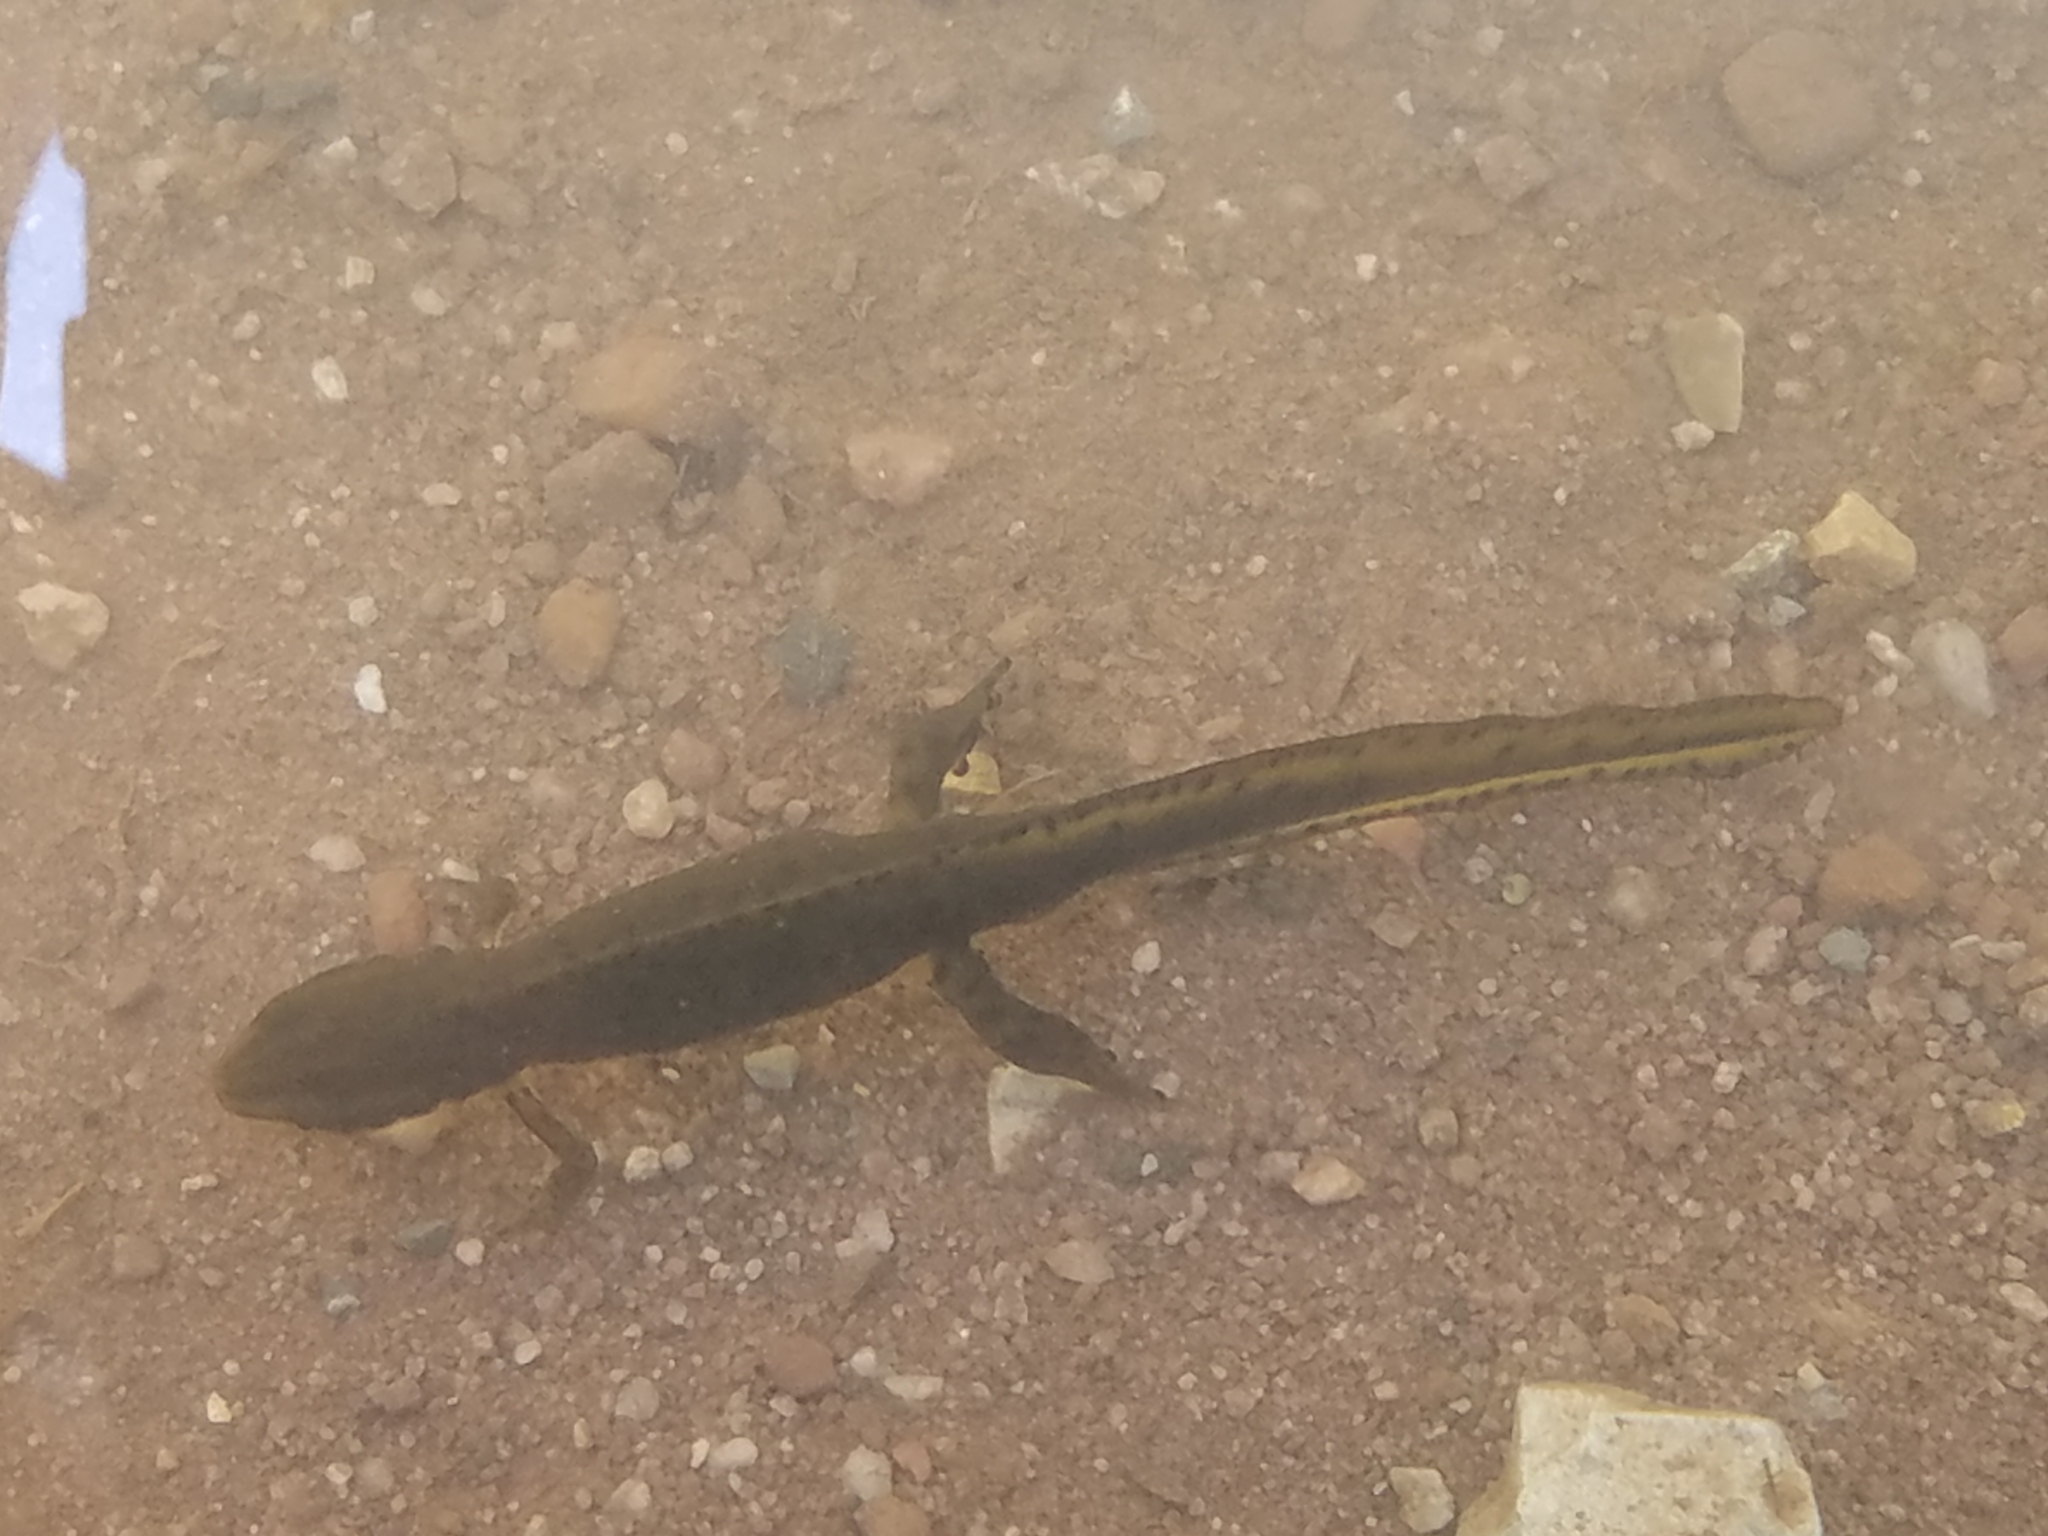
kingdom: Animalia
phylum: Chordata
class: Amphibia
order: Caudata
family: Salamandridae
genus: Notophthalmus
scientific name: Notophthalmus viridescens
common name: Eastern newt
